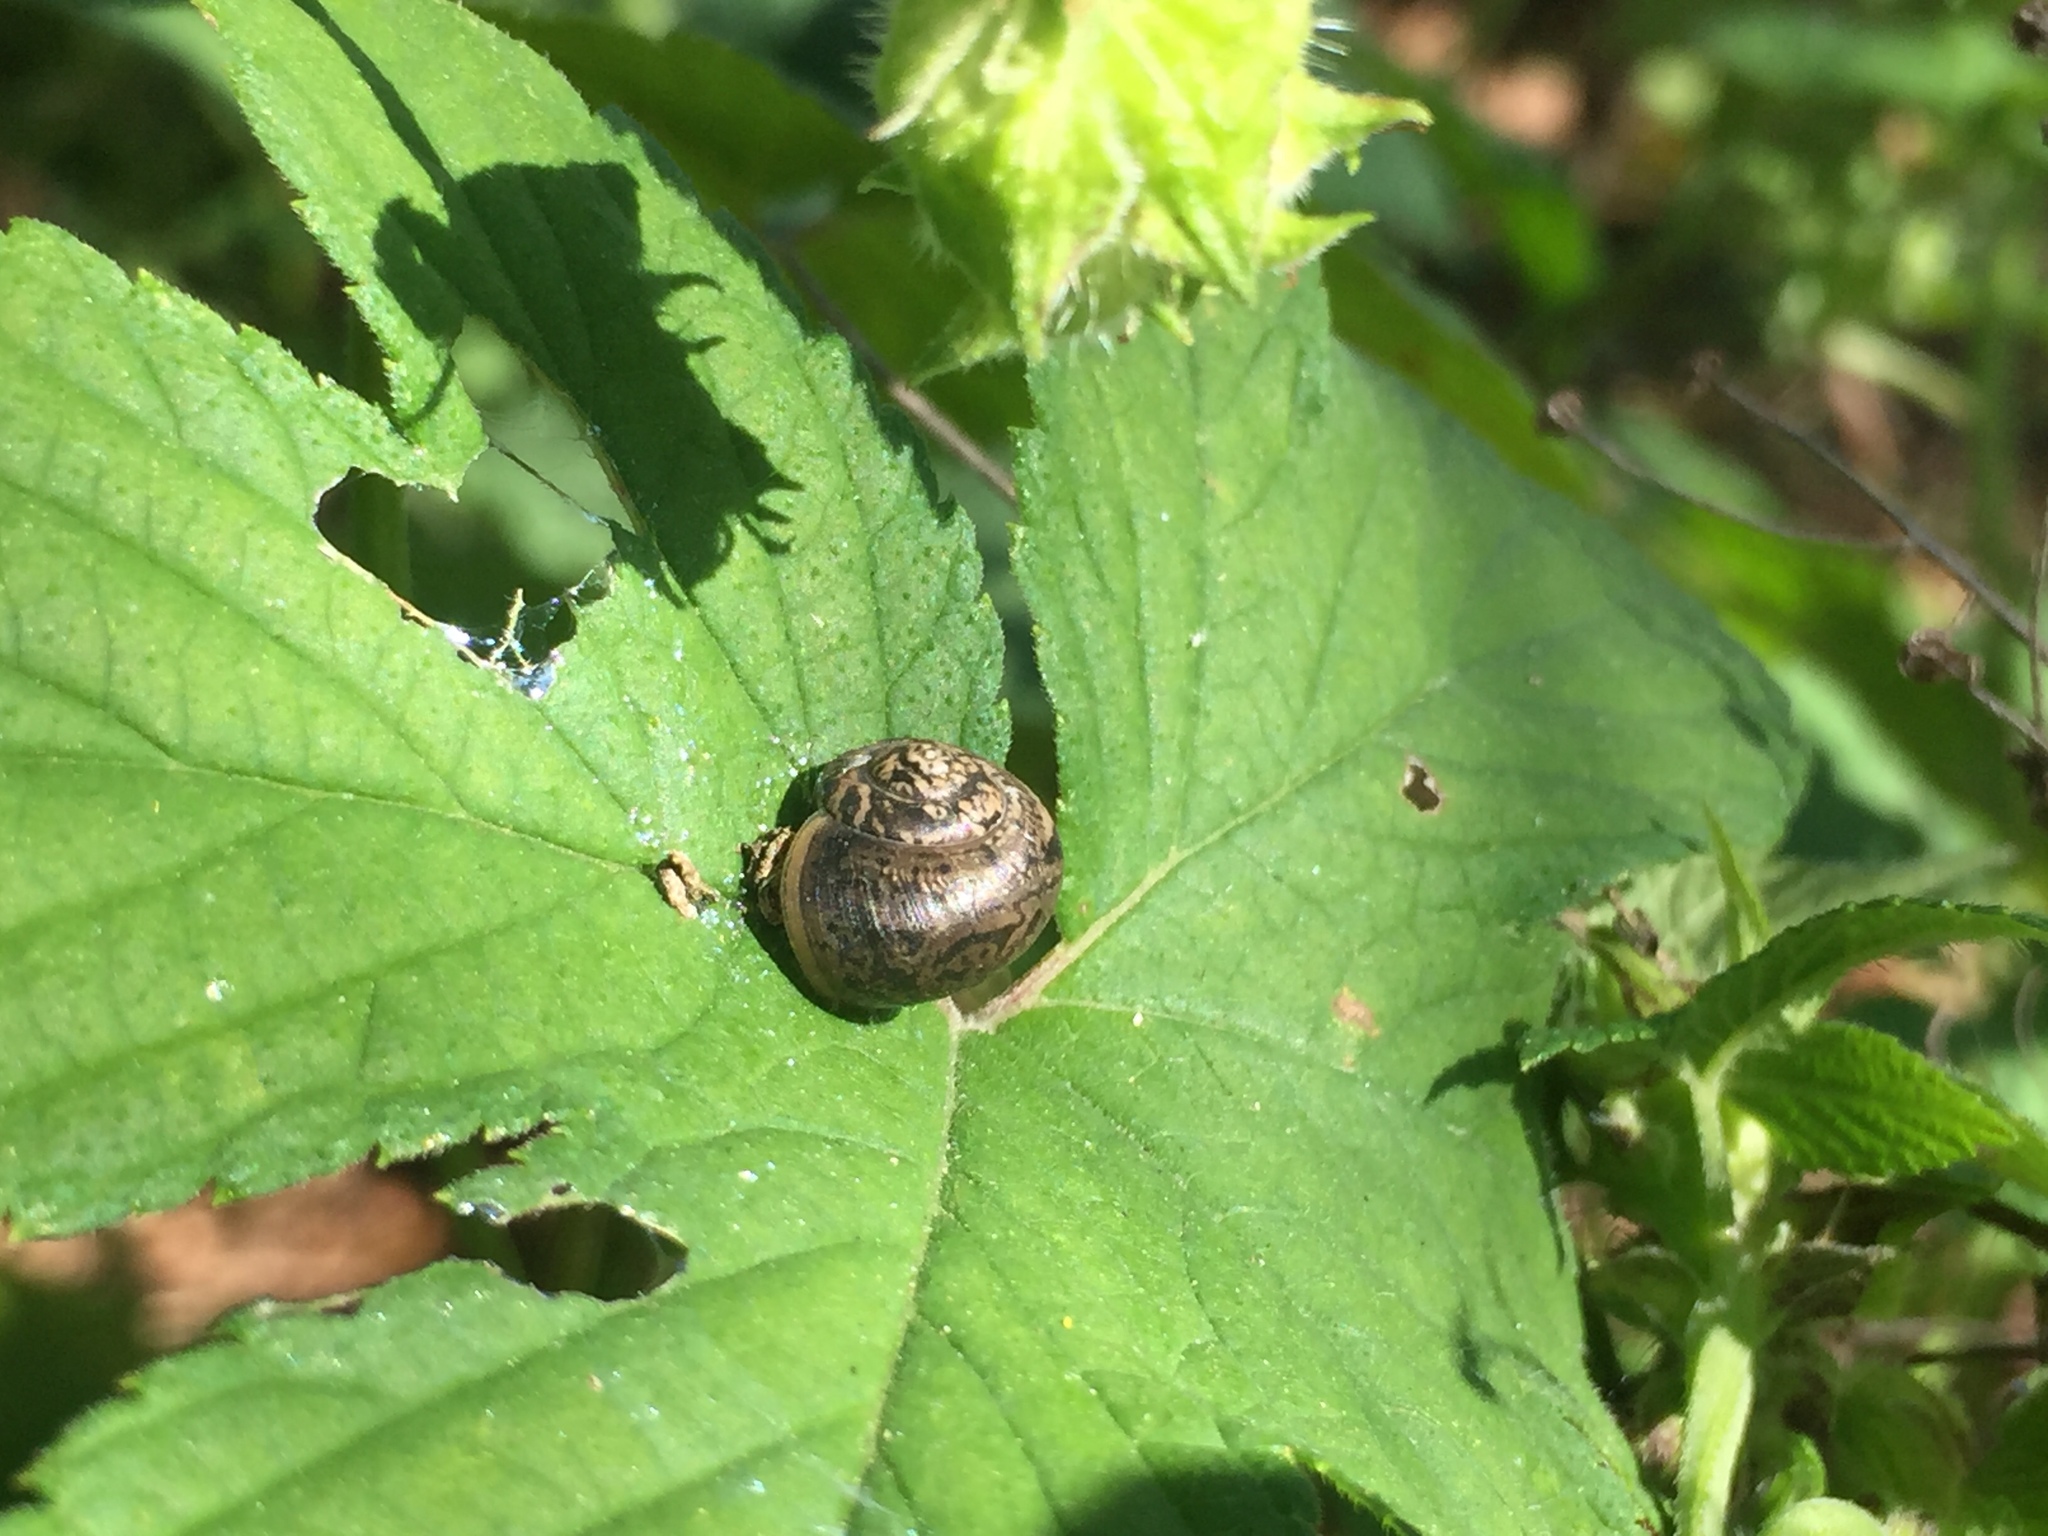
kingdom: Animalia
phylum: Mollusca
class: Gastropoda
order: Stylommatophora
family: Camaenidae
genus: Acusta
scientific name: Acusta redfieldi
